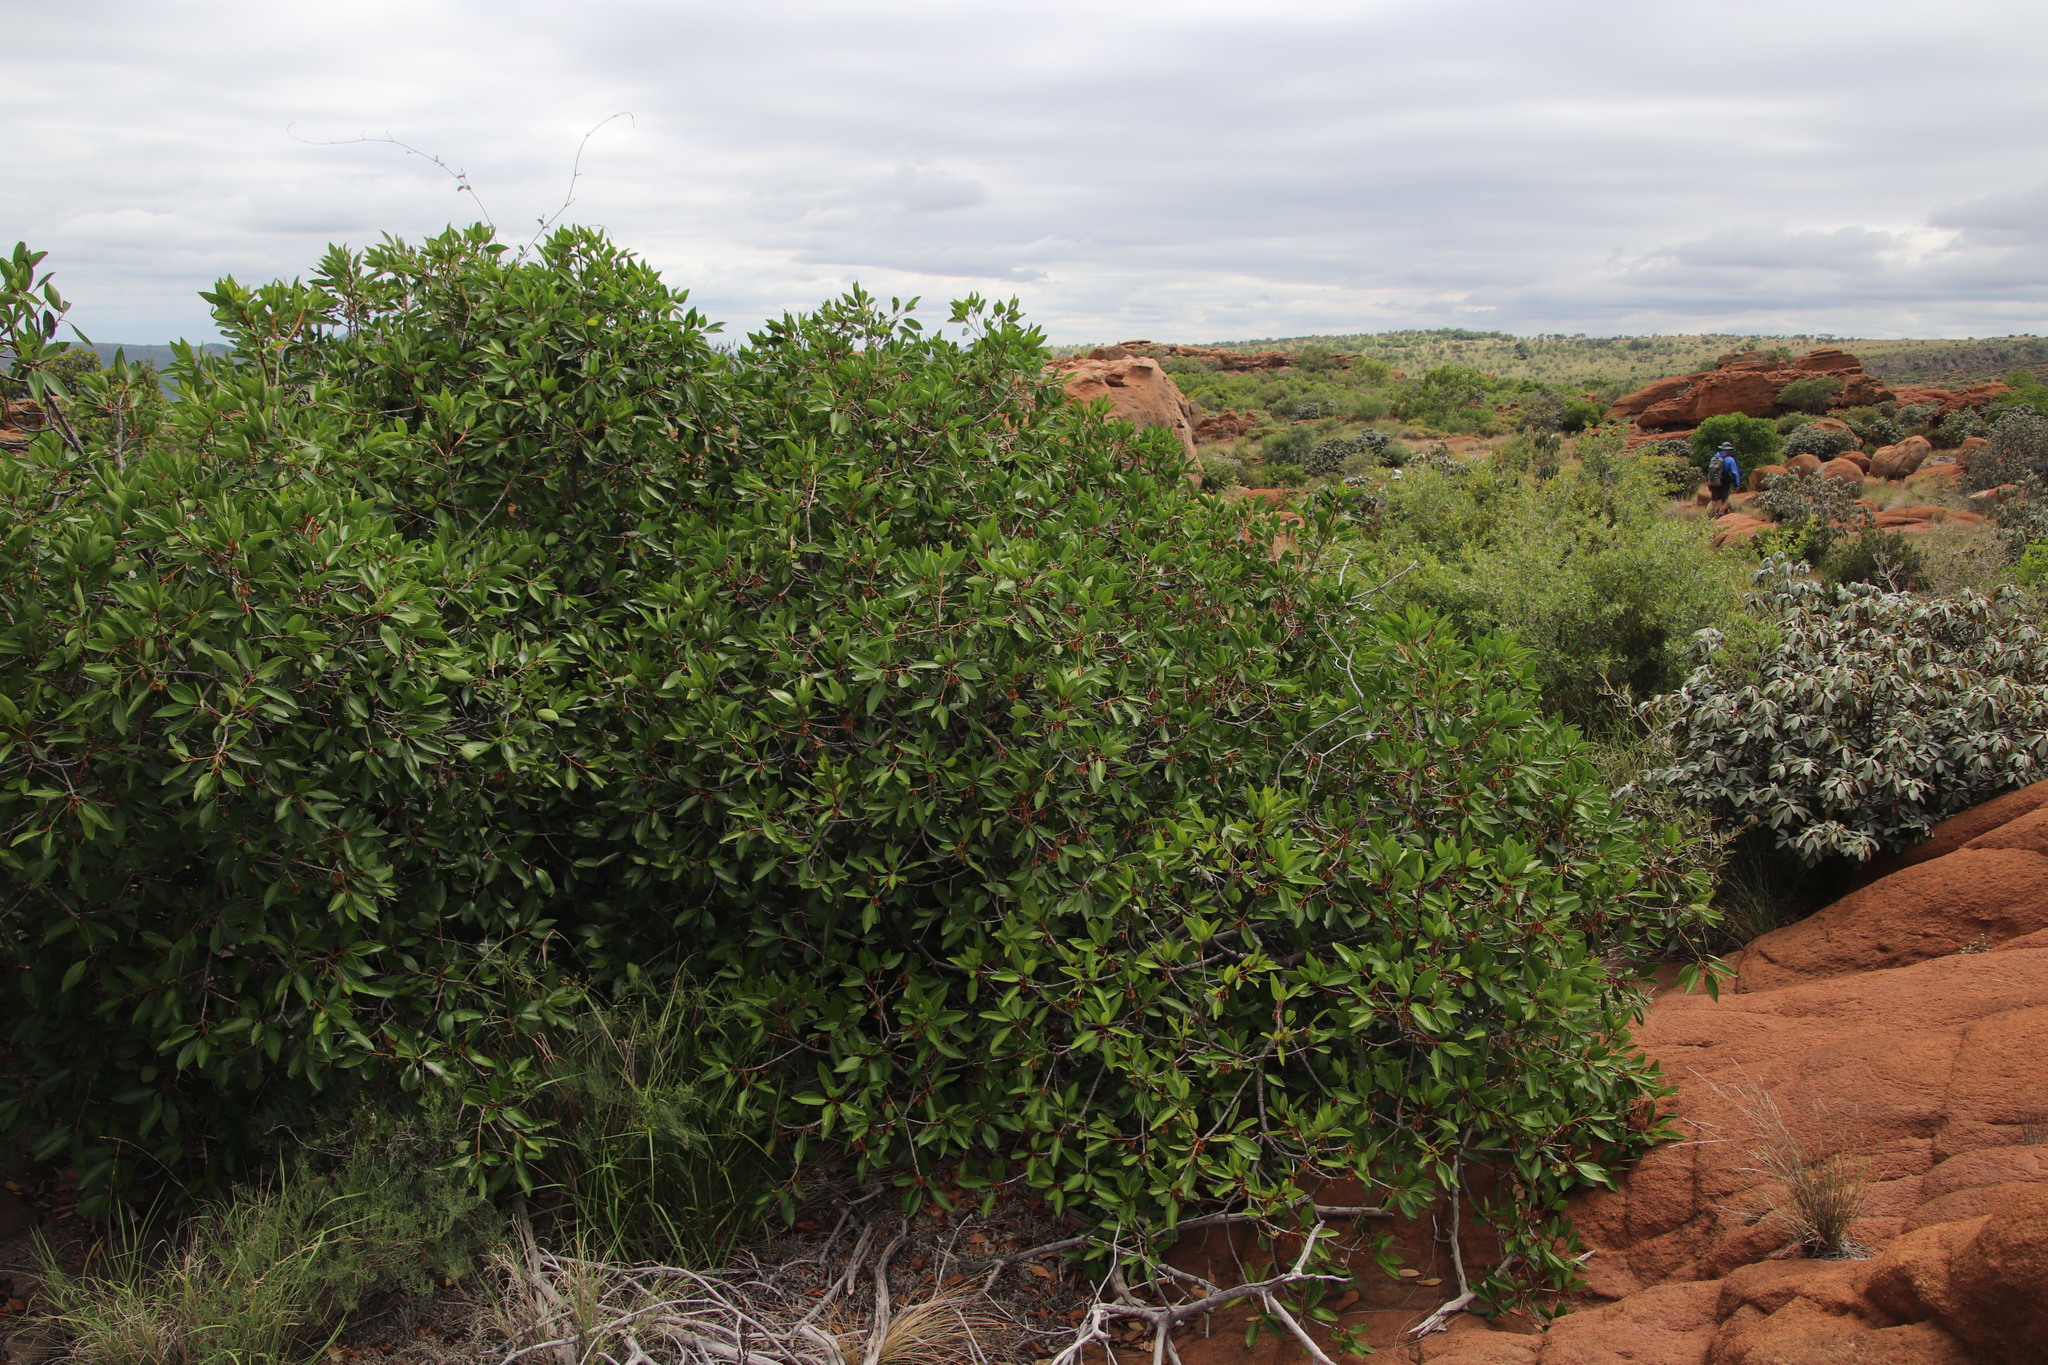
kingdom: Plantae
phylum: Tracheophyta
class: Magnoliopsida
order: Ericales
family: Sapotaceae
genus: Mimusops
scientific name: Mimusops zeyheri
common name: Transvaal red milkwood
